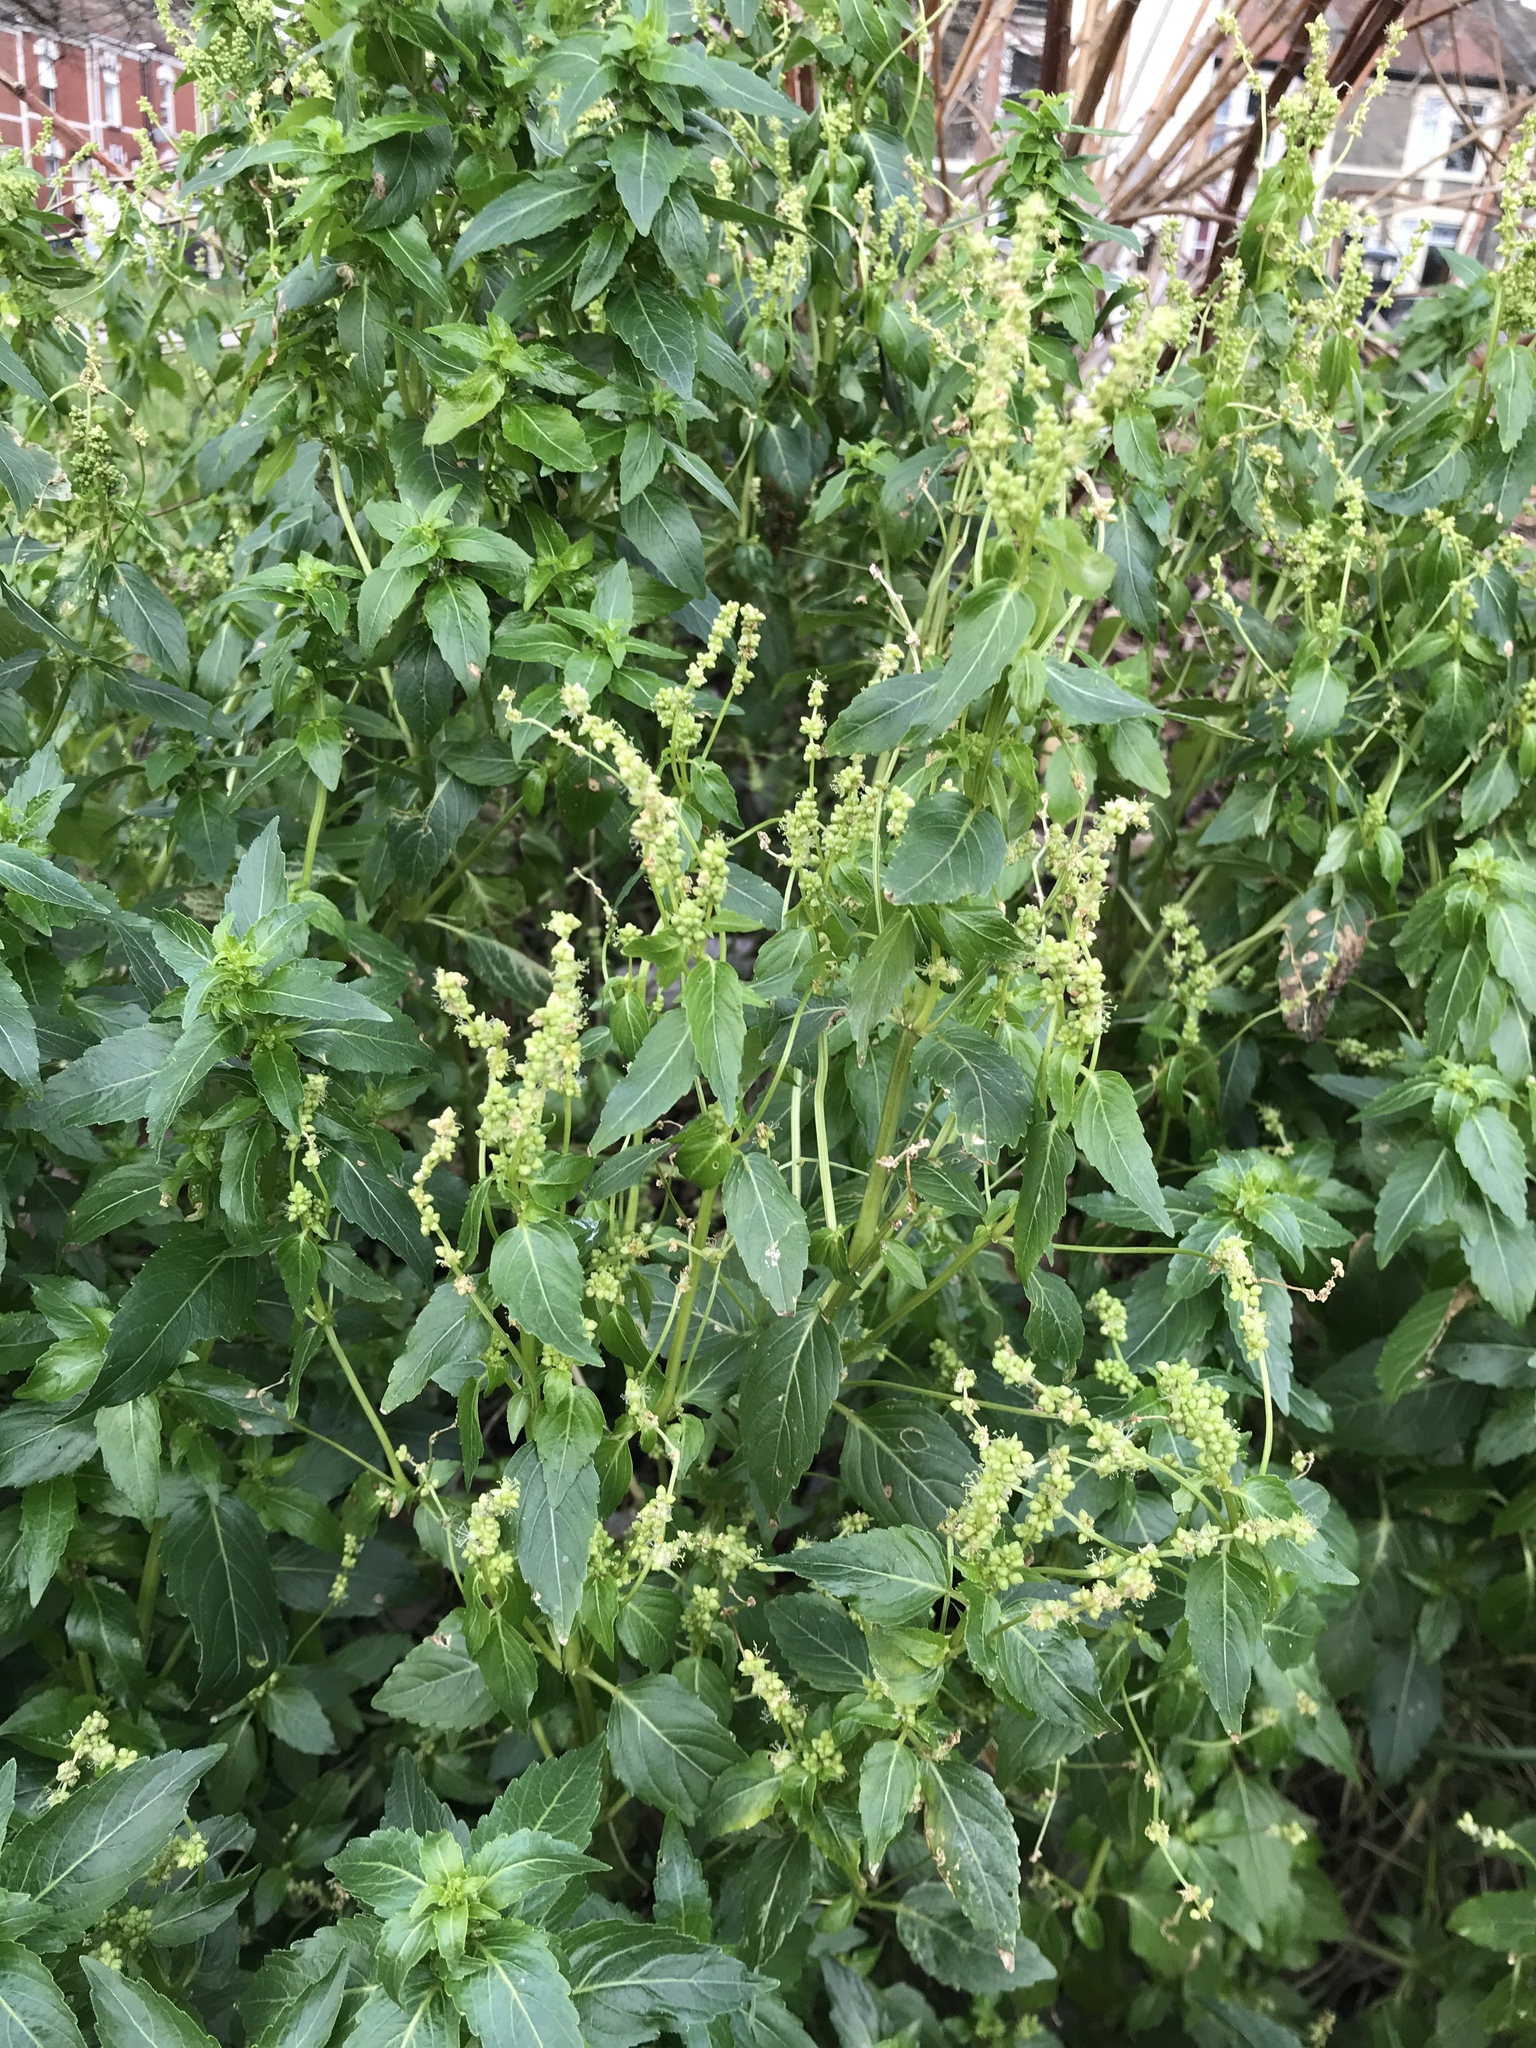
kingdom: Plantae
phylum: Tracheophyta
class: Magnoliopsida
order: Malpighiales
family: Euphorbiaceae
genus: Mercurialis
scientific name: Mercurialis annua
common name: Annual mercury
